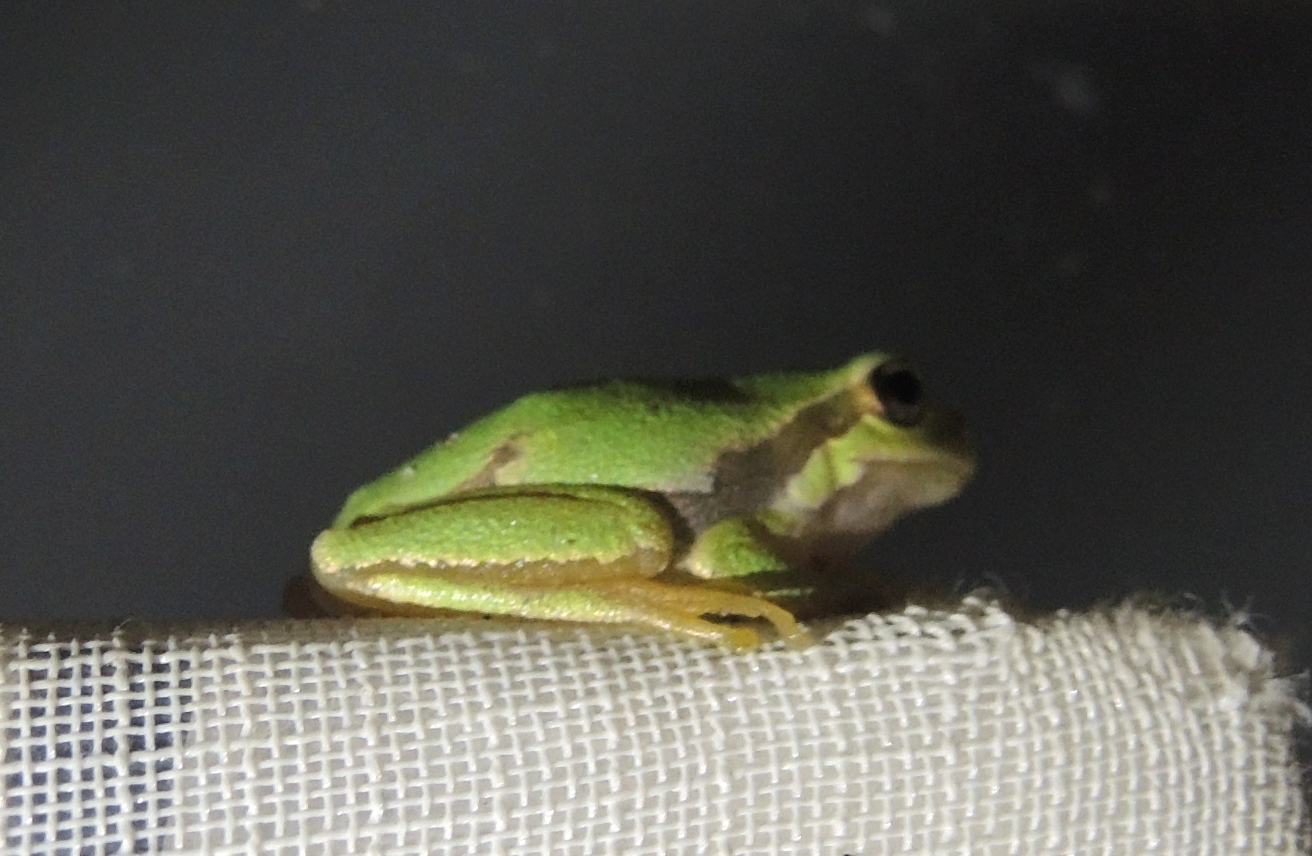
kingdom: Animalia
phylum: Chordata
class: Amphibia
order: Anura
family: Hylidae
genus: Hyla
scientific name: Hyla orientalis
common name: Caucasian treefrog
